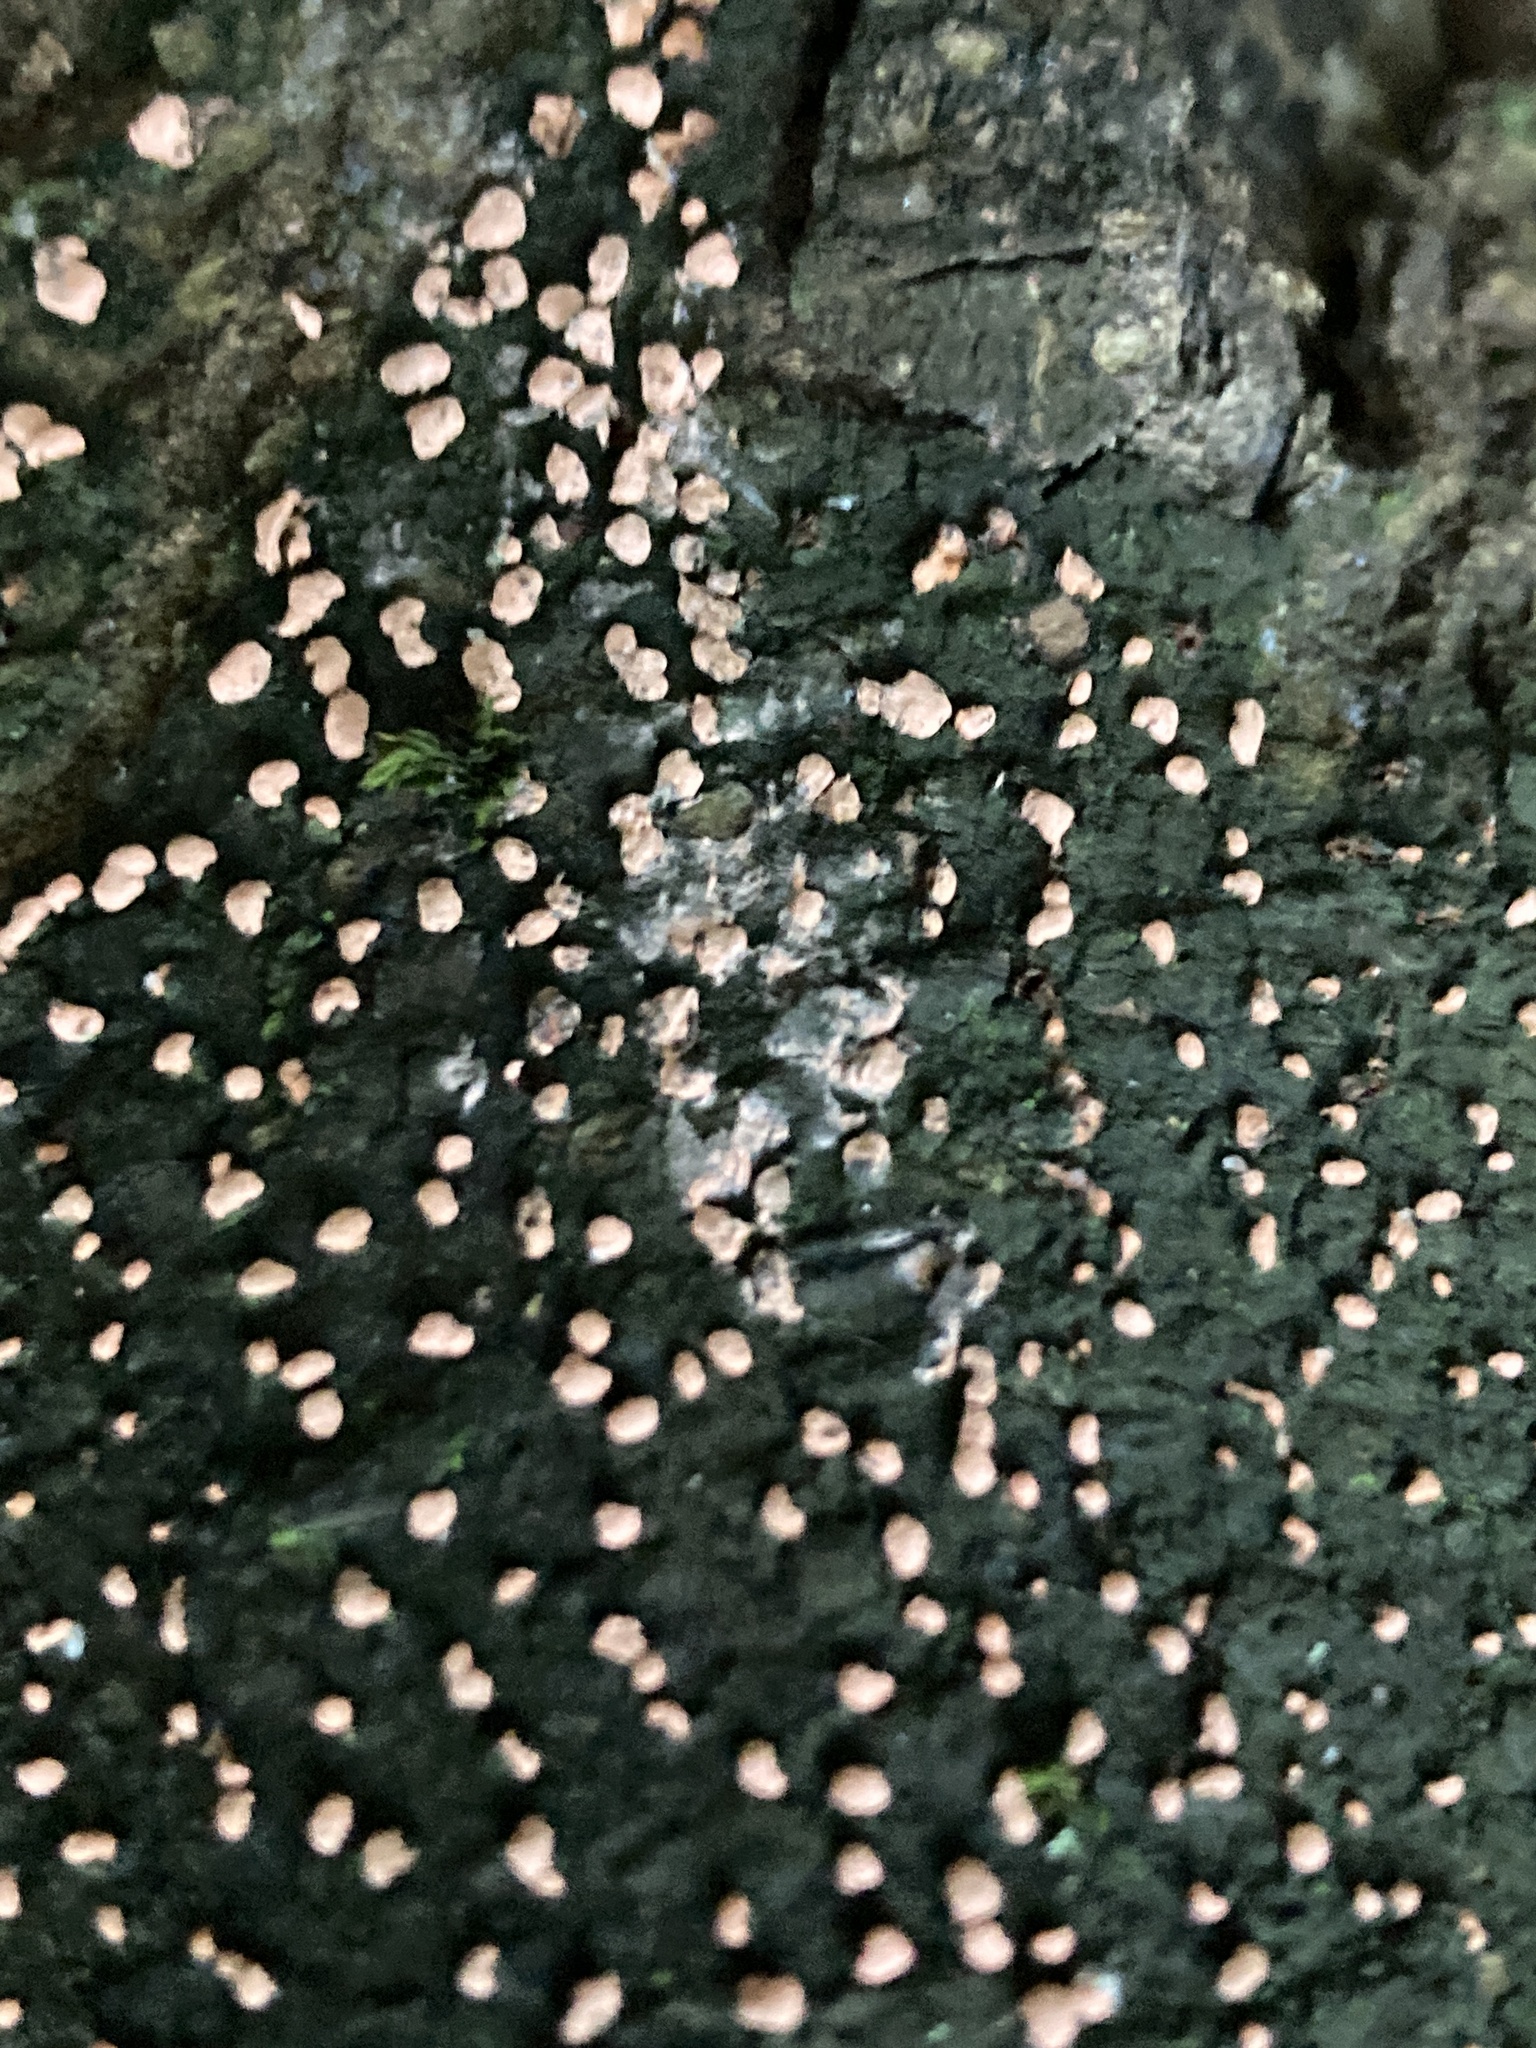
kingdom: Fungi
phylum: Ascomycota
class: Sordariomycetes
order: Hypocreales
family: Nectriaceae
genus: Nectria
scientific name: Nectria cinnabarina
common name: Coral spot
